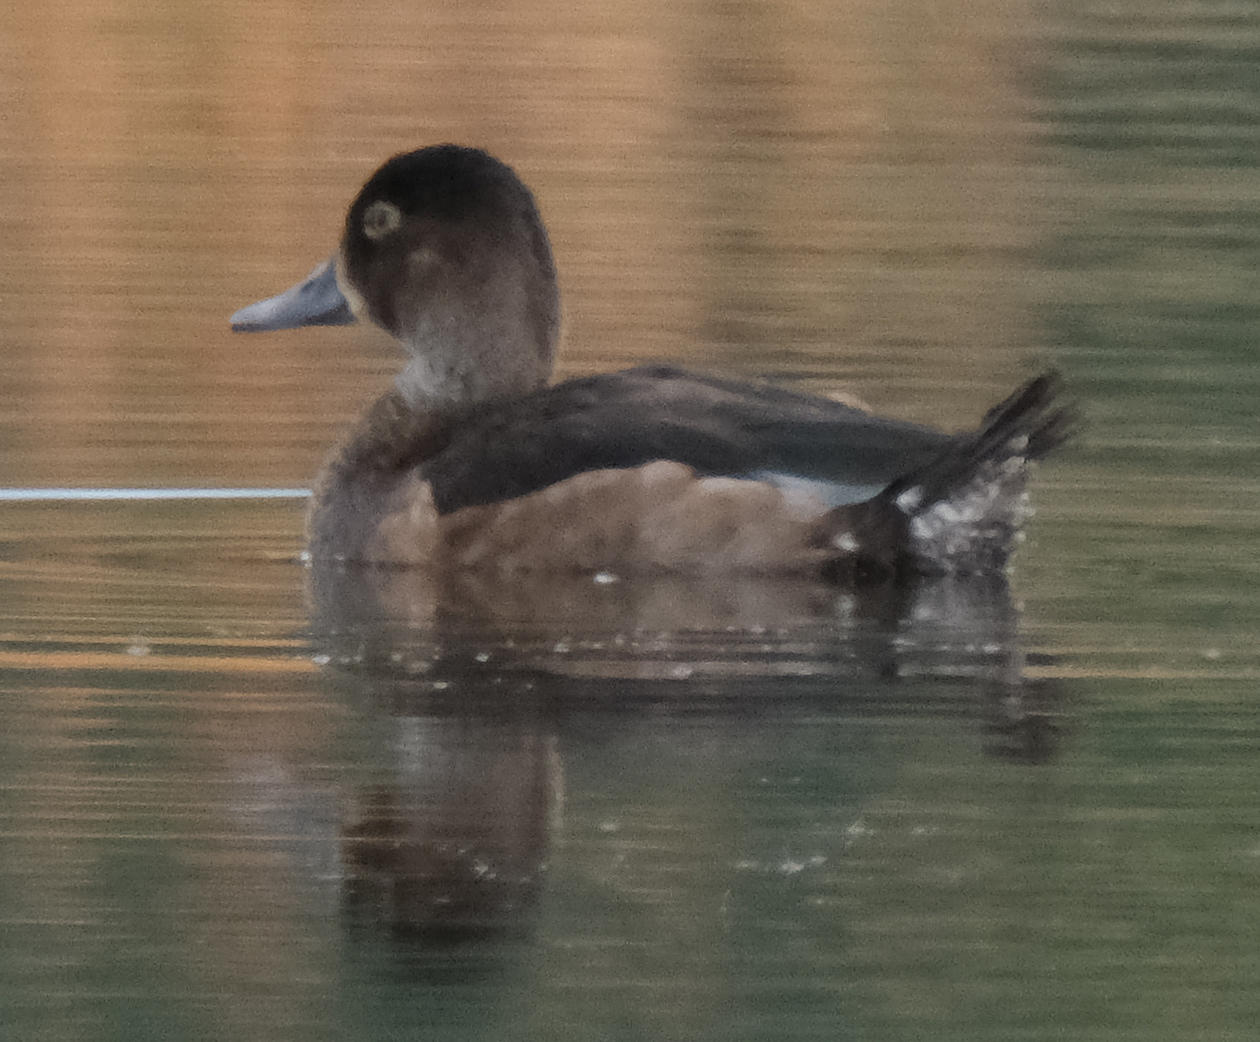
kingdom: Animalia
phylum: Chordata
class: Aves
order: Anseriformes
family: Anatidae
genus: Aythya
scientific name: Aythya collaris
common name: Ring-necked duck
